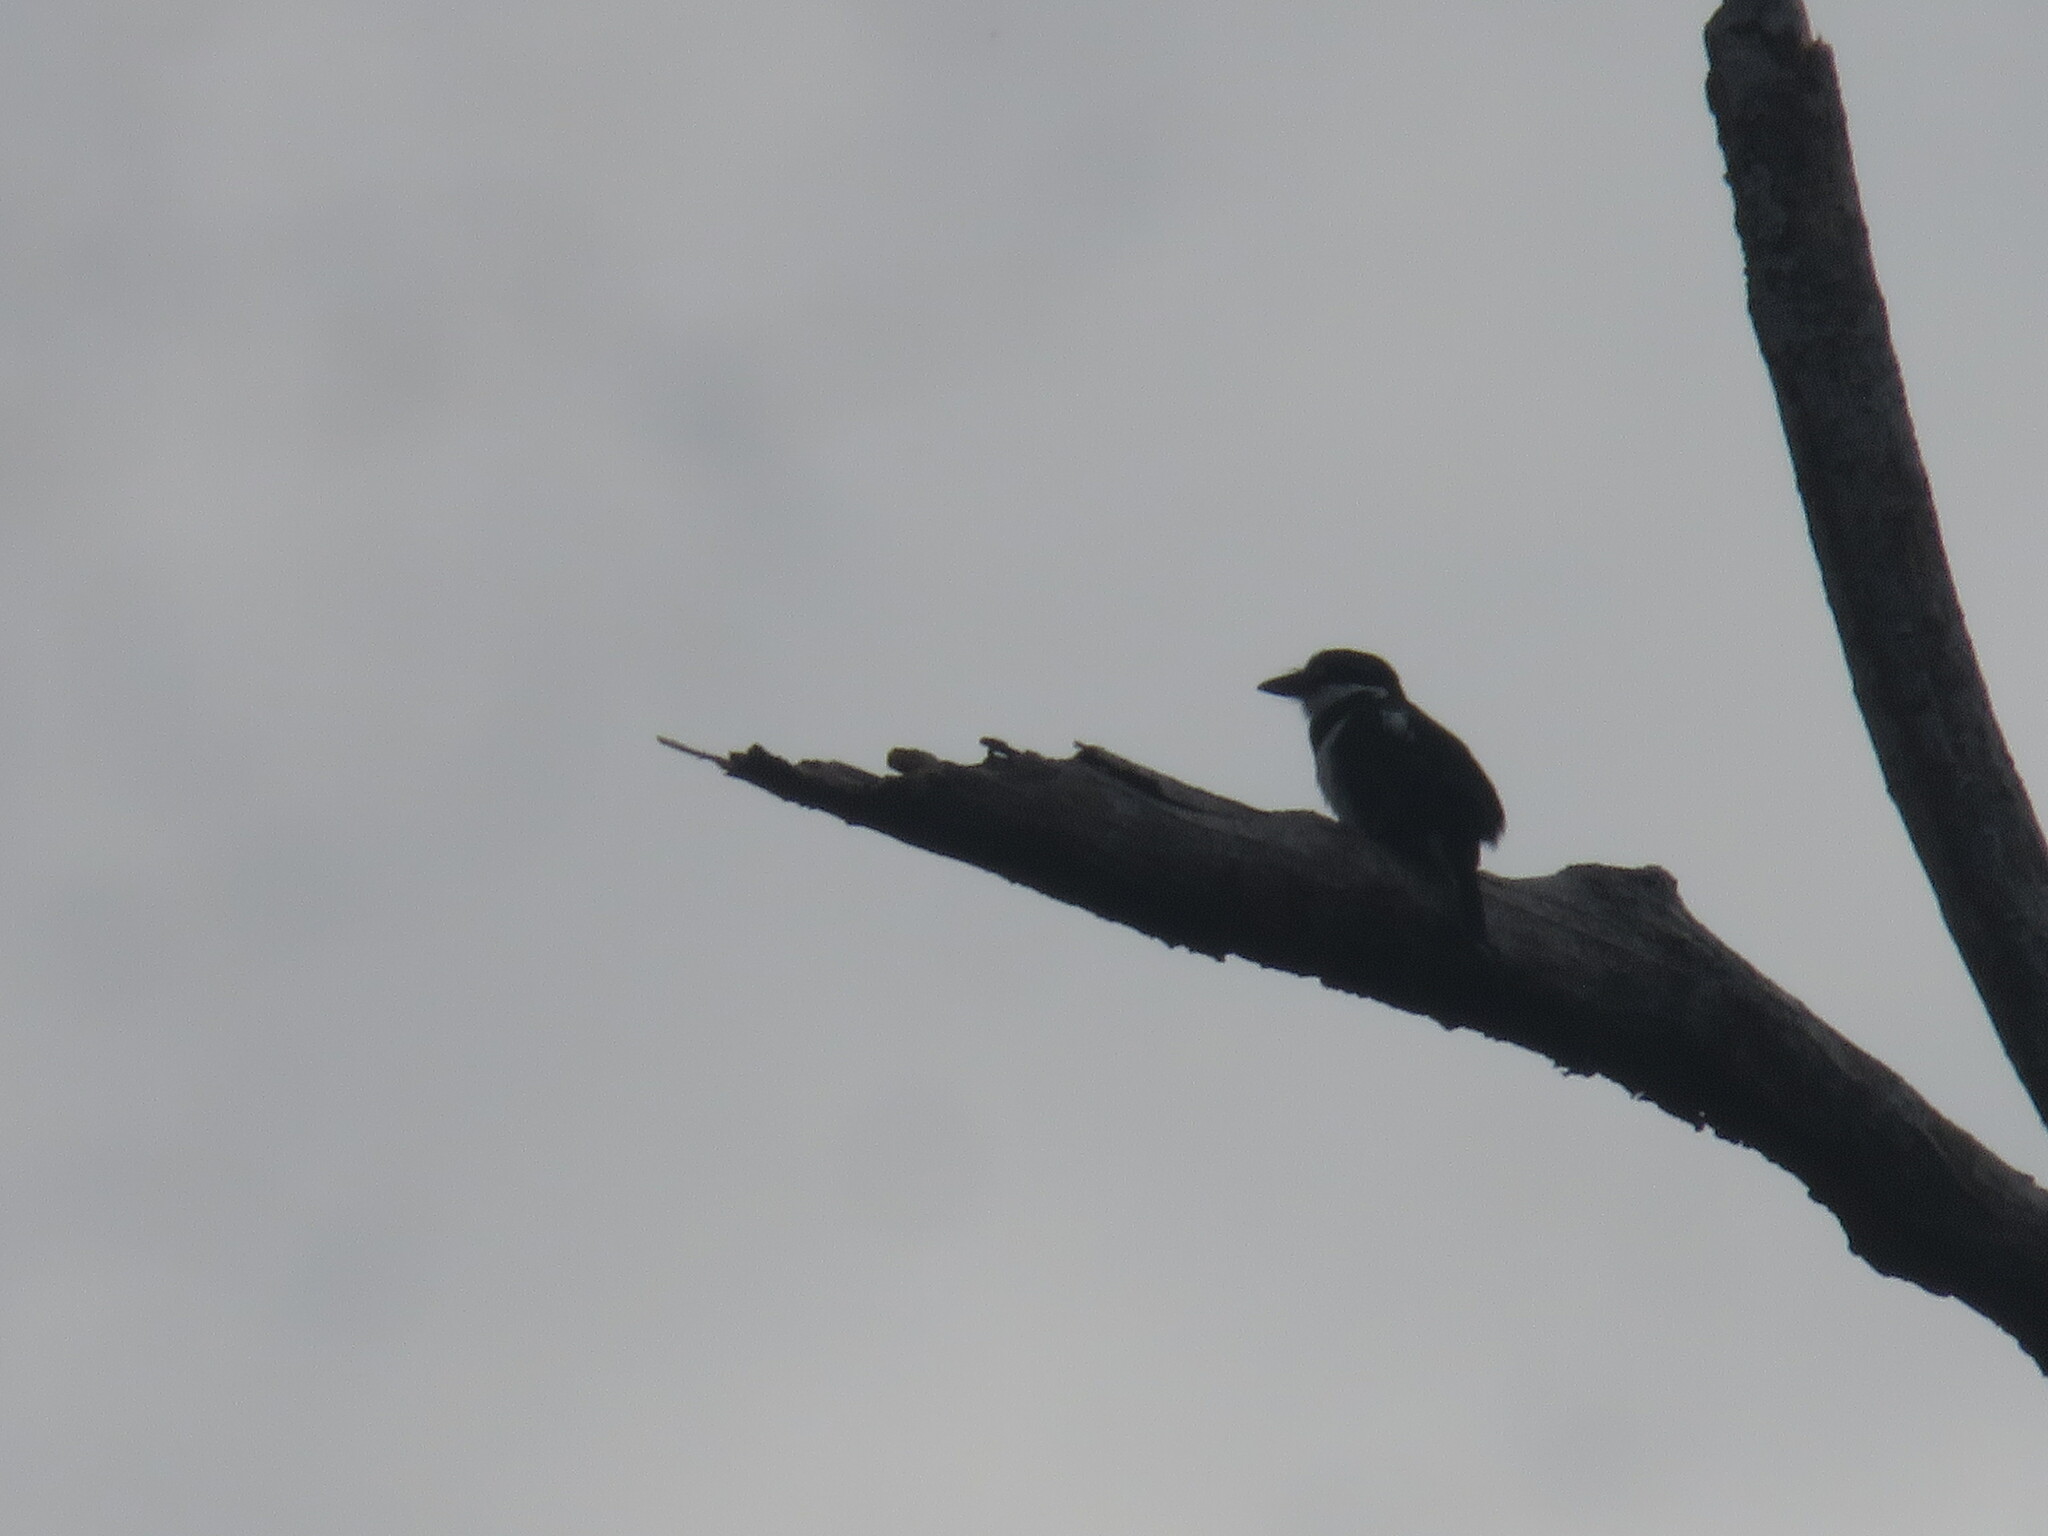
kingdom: Animalia
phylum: Chordata
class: Aves
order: Piciformes
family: Bucconidae
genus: Notharchus
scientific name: Notharchus tectus
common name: Pied puffbird
